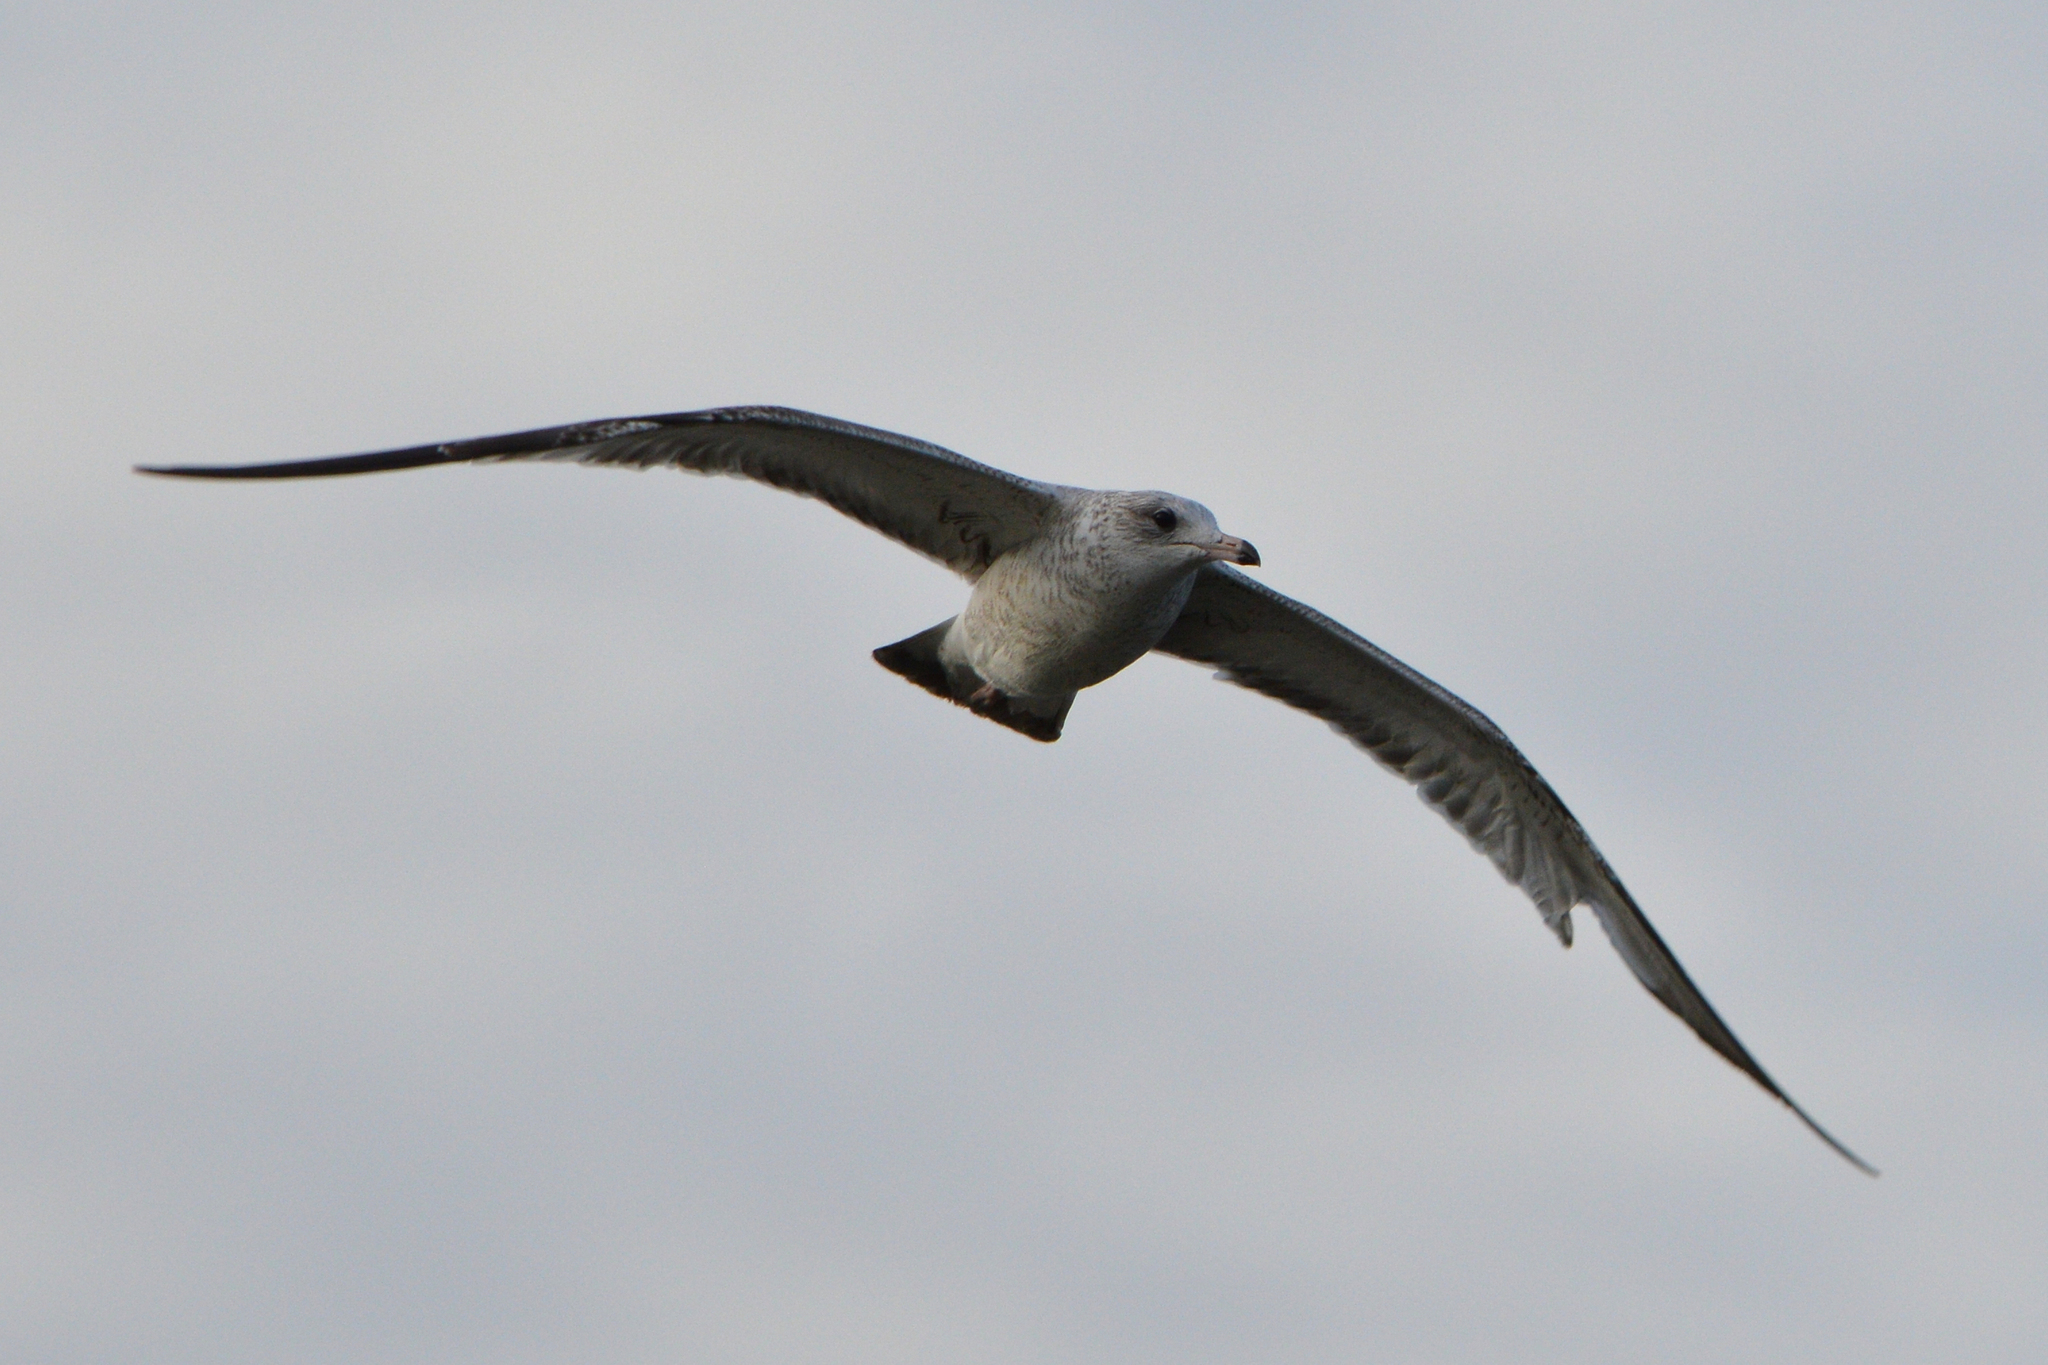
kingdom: Animalia
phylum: Chordata
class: Aves
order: Charadriiformes
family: Laridae
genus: Larus
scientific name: Larus delawarensis
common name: Ring-billed gull
